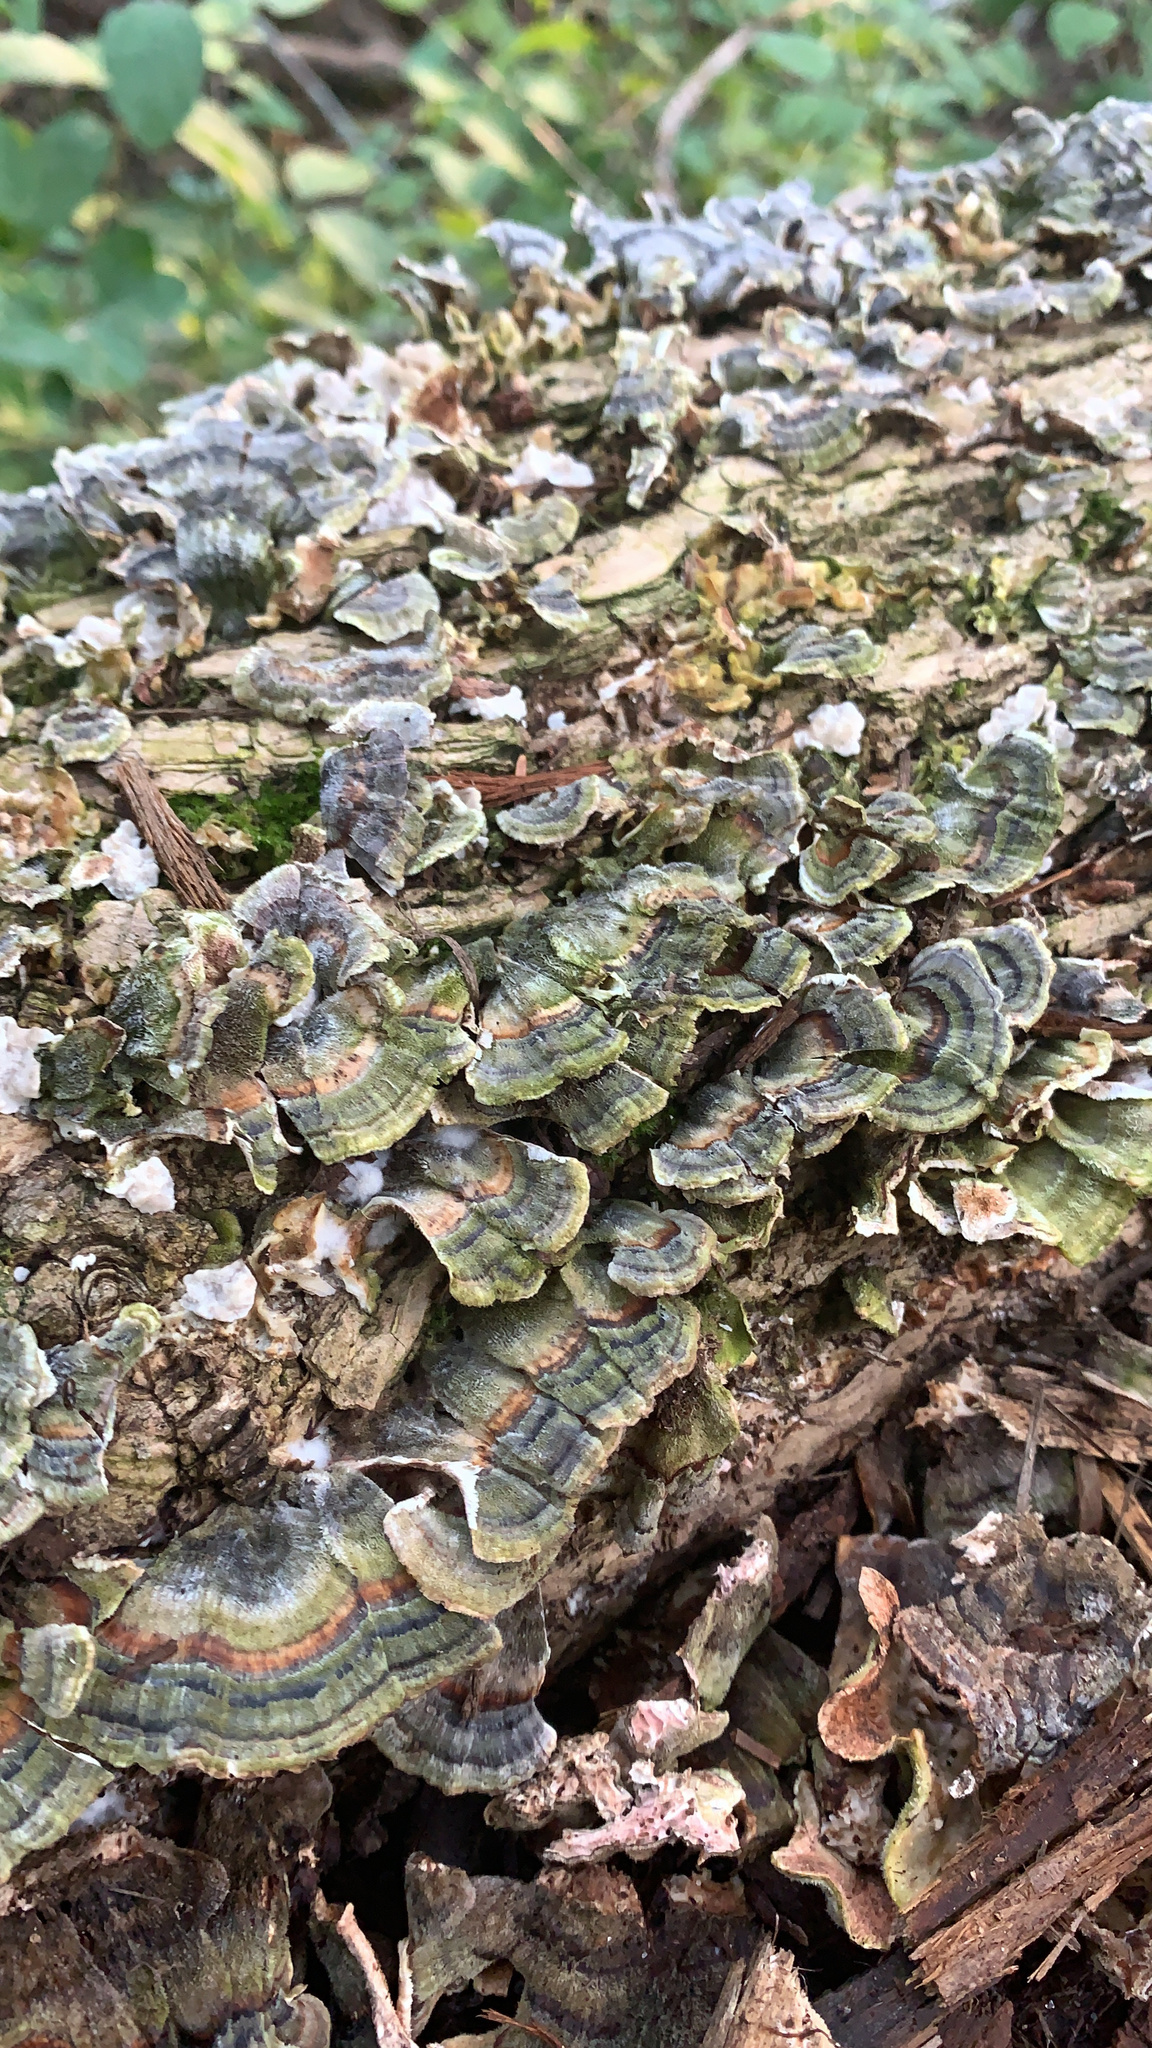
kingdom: Fungi
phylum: Basidiomycota
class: Agaricomycetes
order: Polyporales
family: Polyporaceae
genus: Trametes
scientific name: Trametes versicolor
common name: Turkeytail
